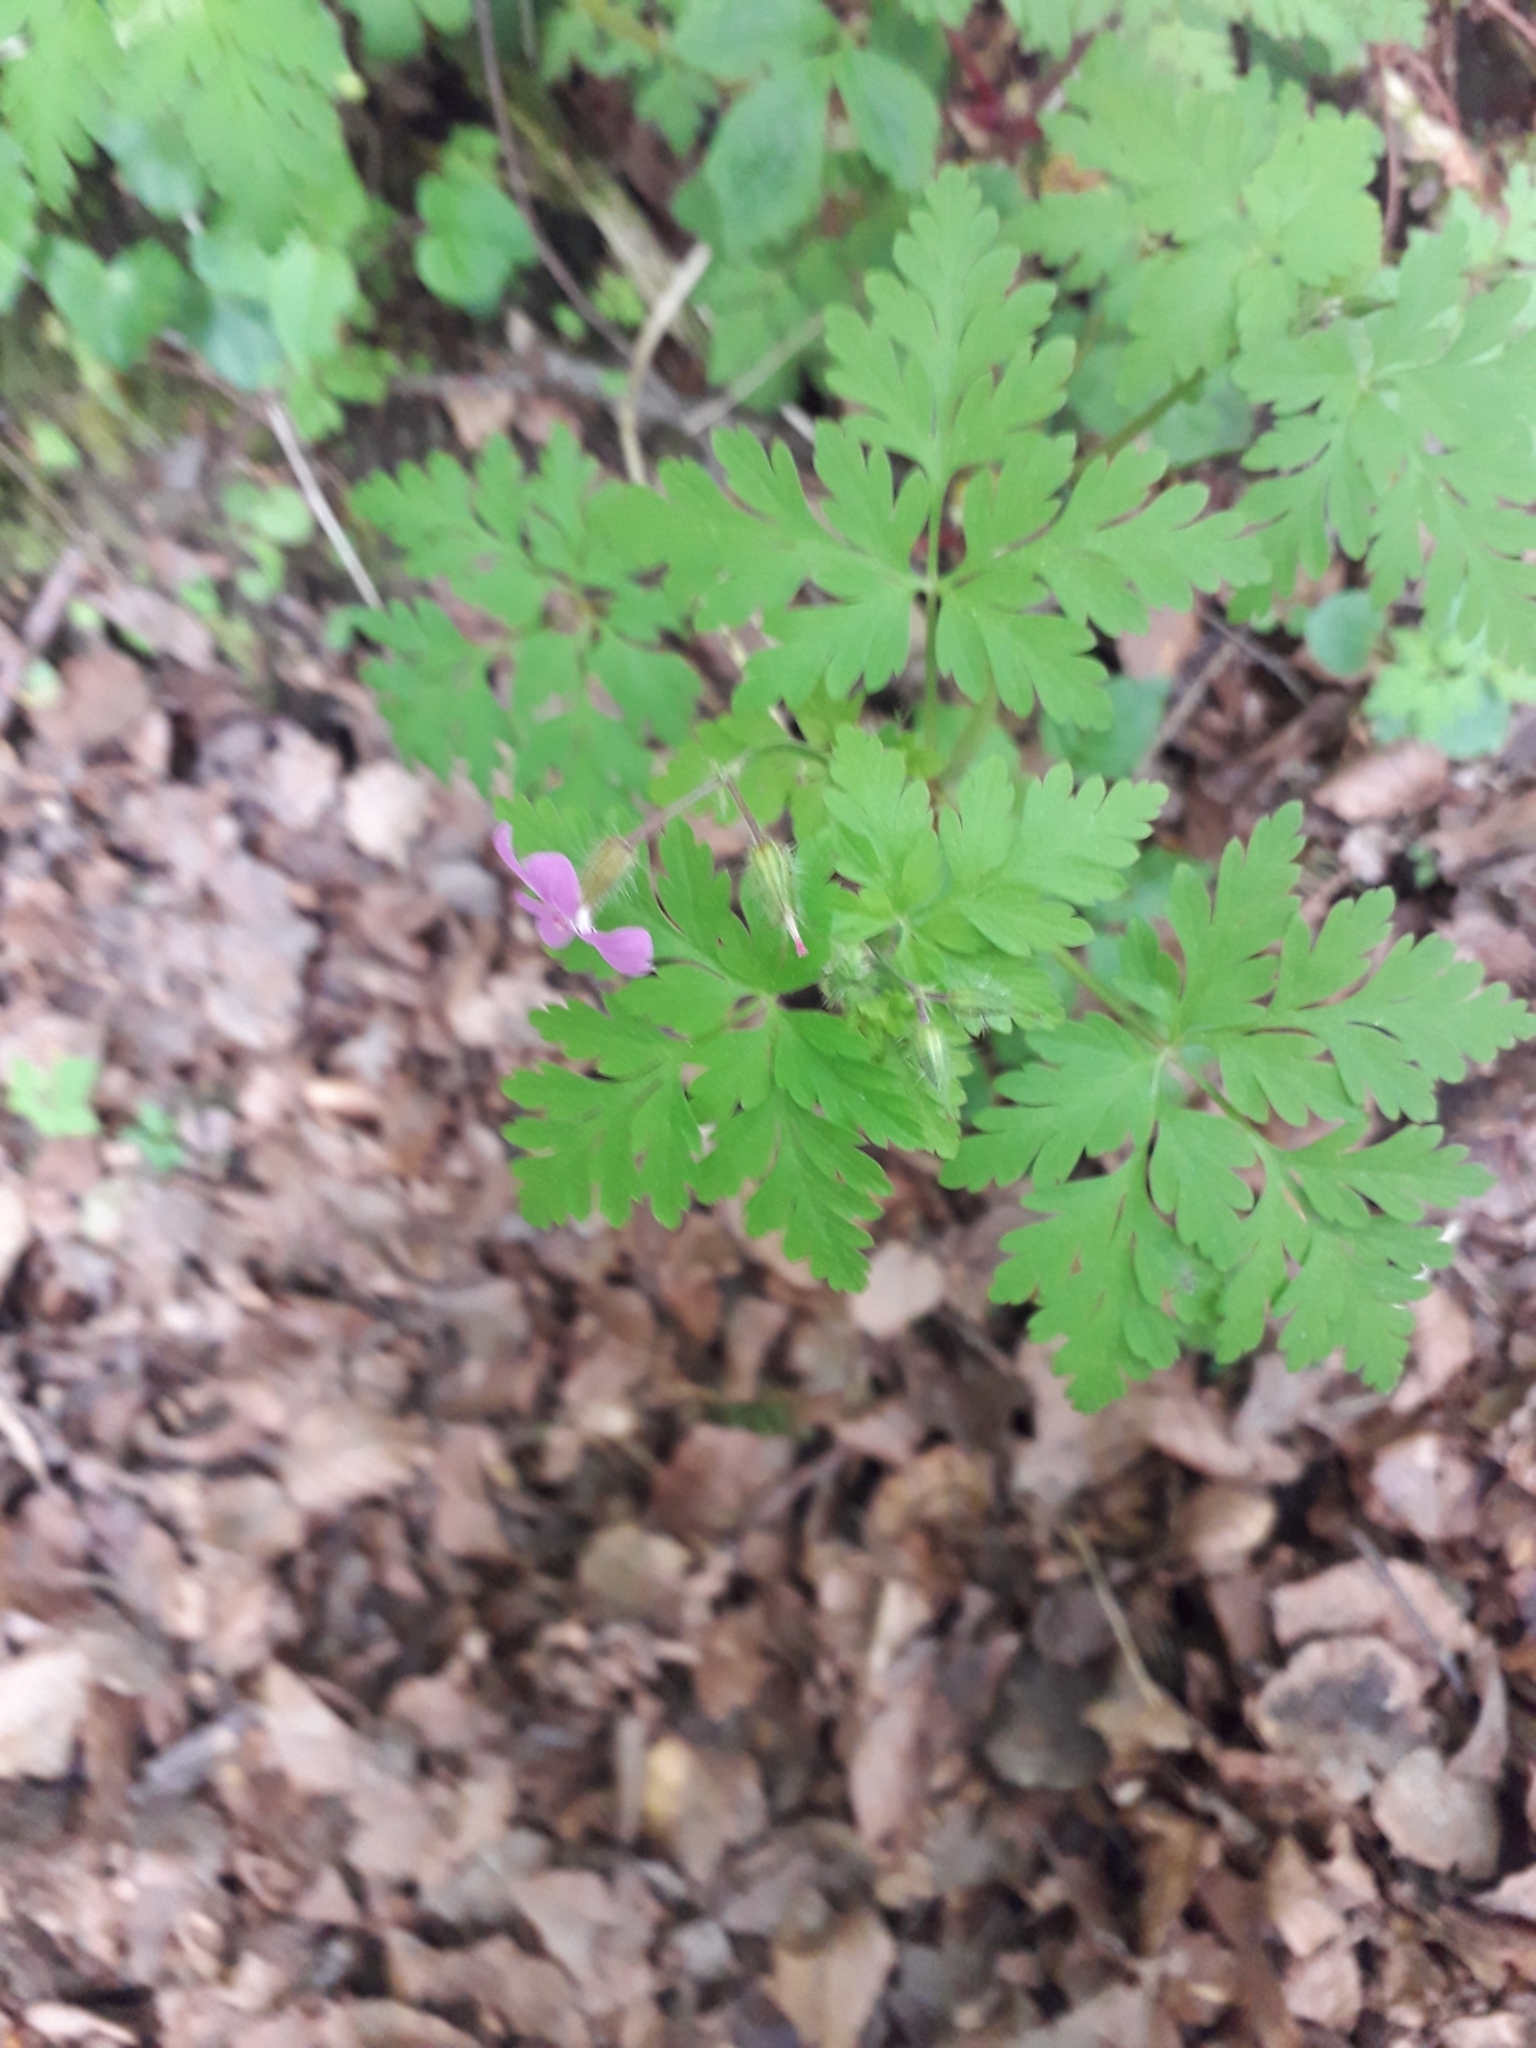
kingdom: Plantae
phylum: Tracheophyta
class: Magnoliopsida
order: Geraniales
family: Geraniaceae
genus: Geranium
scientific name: Geranium robertianum
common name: Herb-robert
